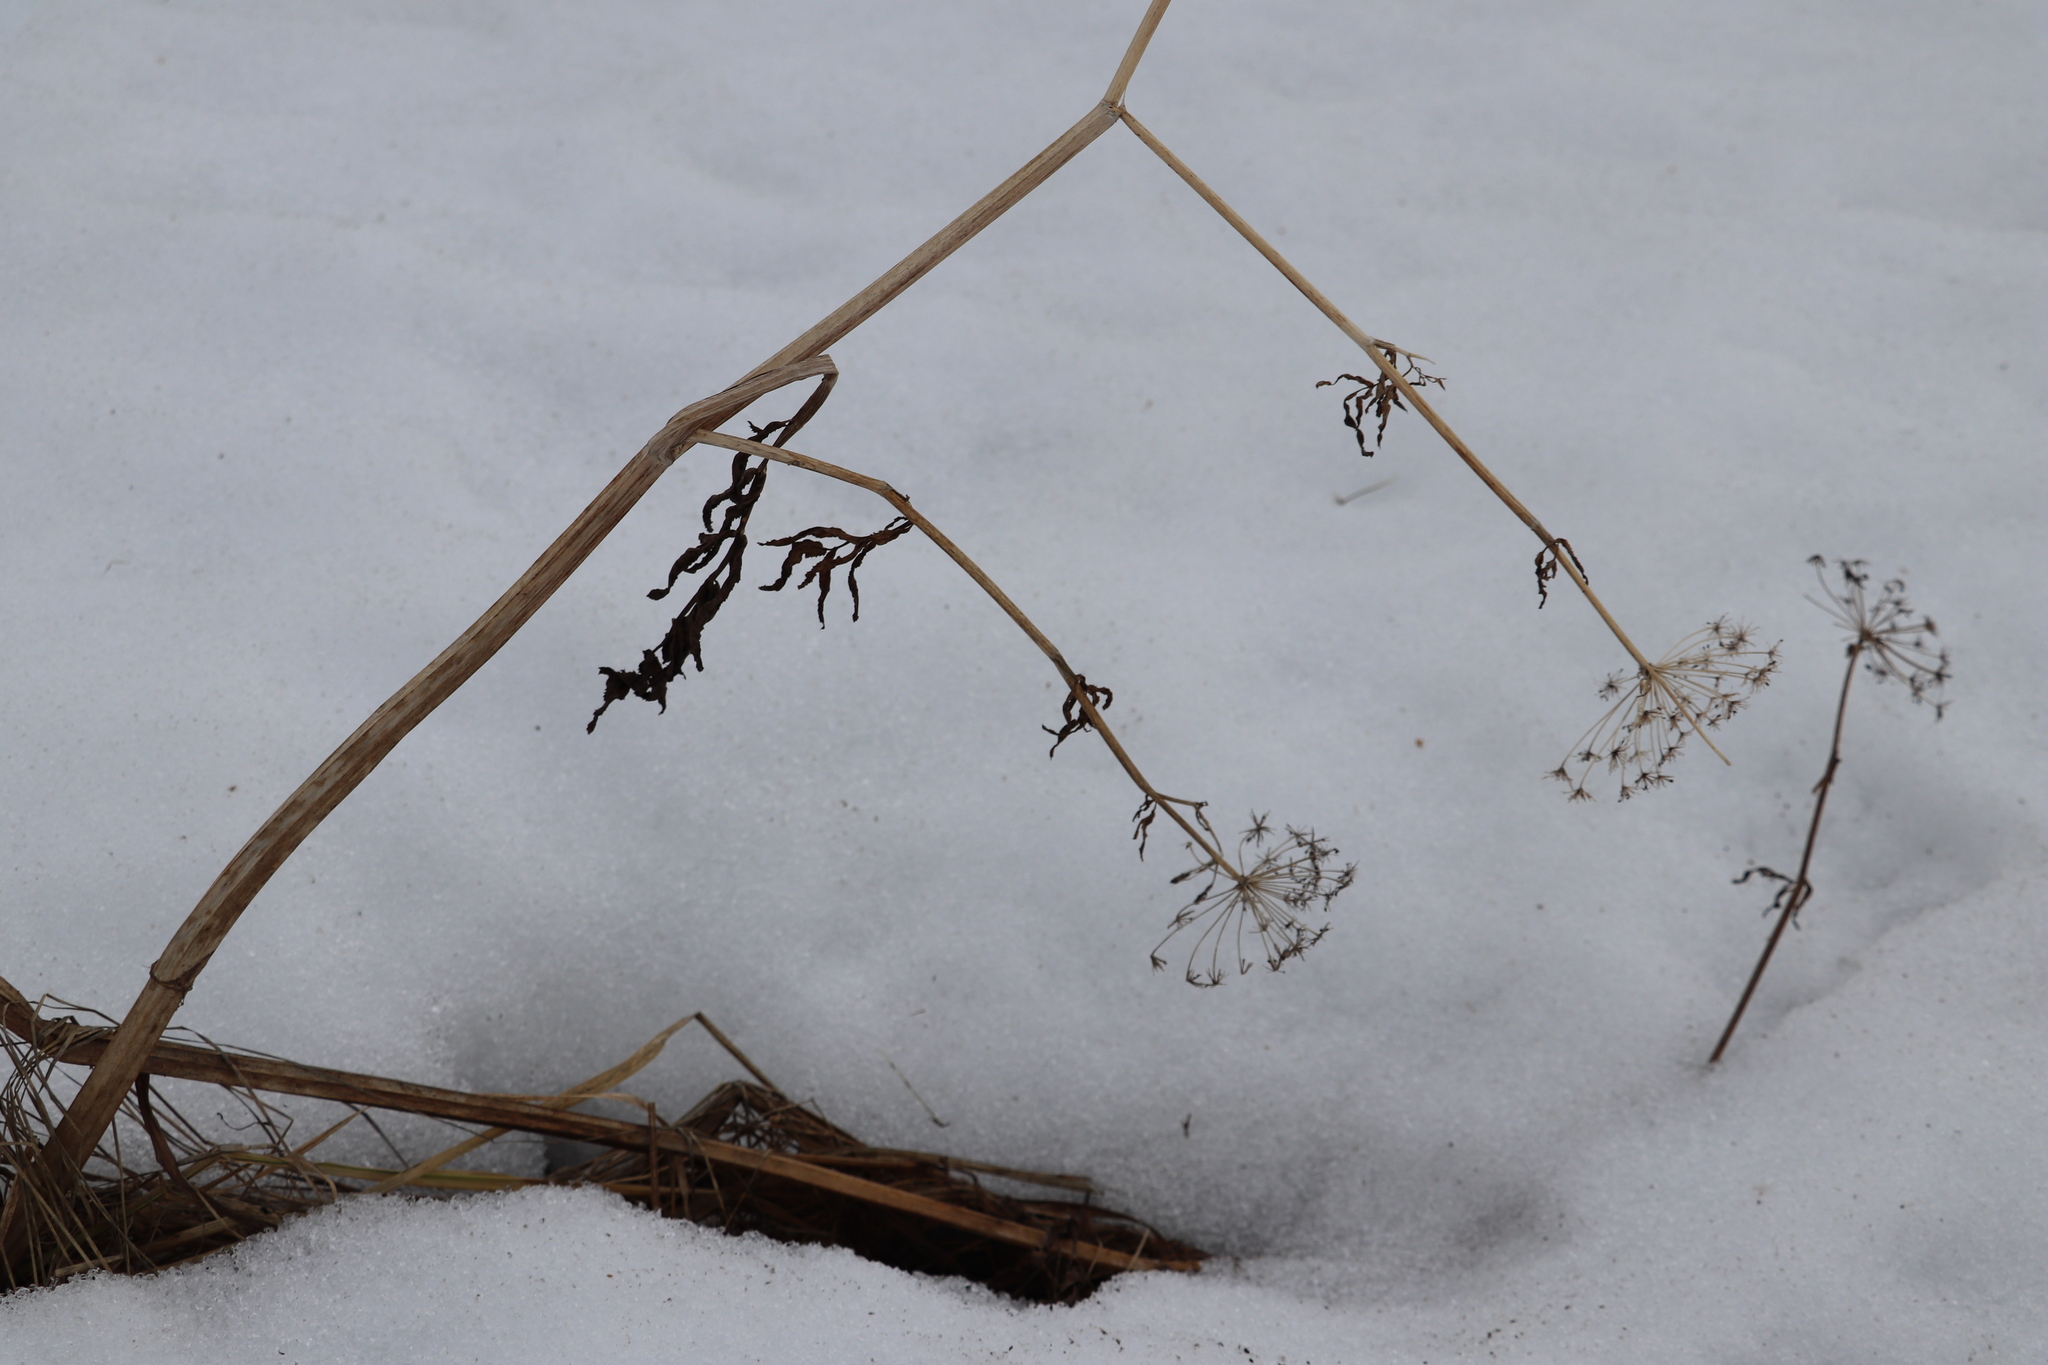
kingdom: Plantae
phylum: Tracheophyta
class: Magnoliopsida
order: Apiales
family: Apiaceae
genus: Cicuta
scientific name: Cicuta virosa
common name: Cowbane
